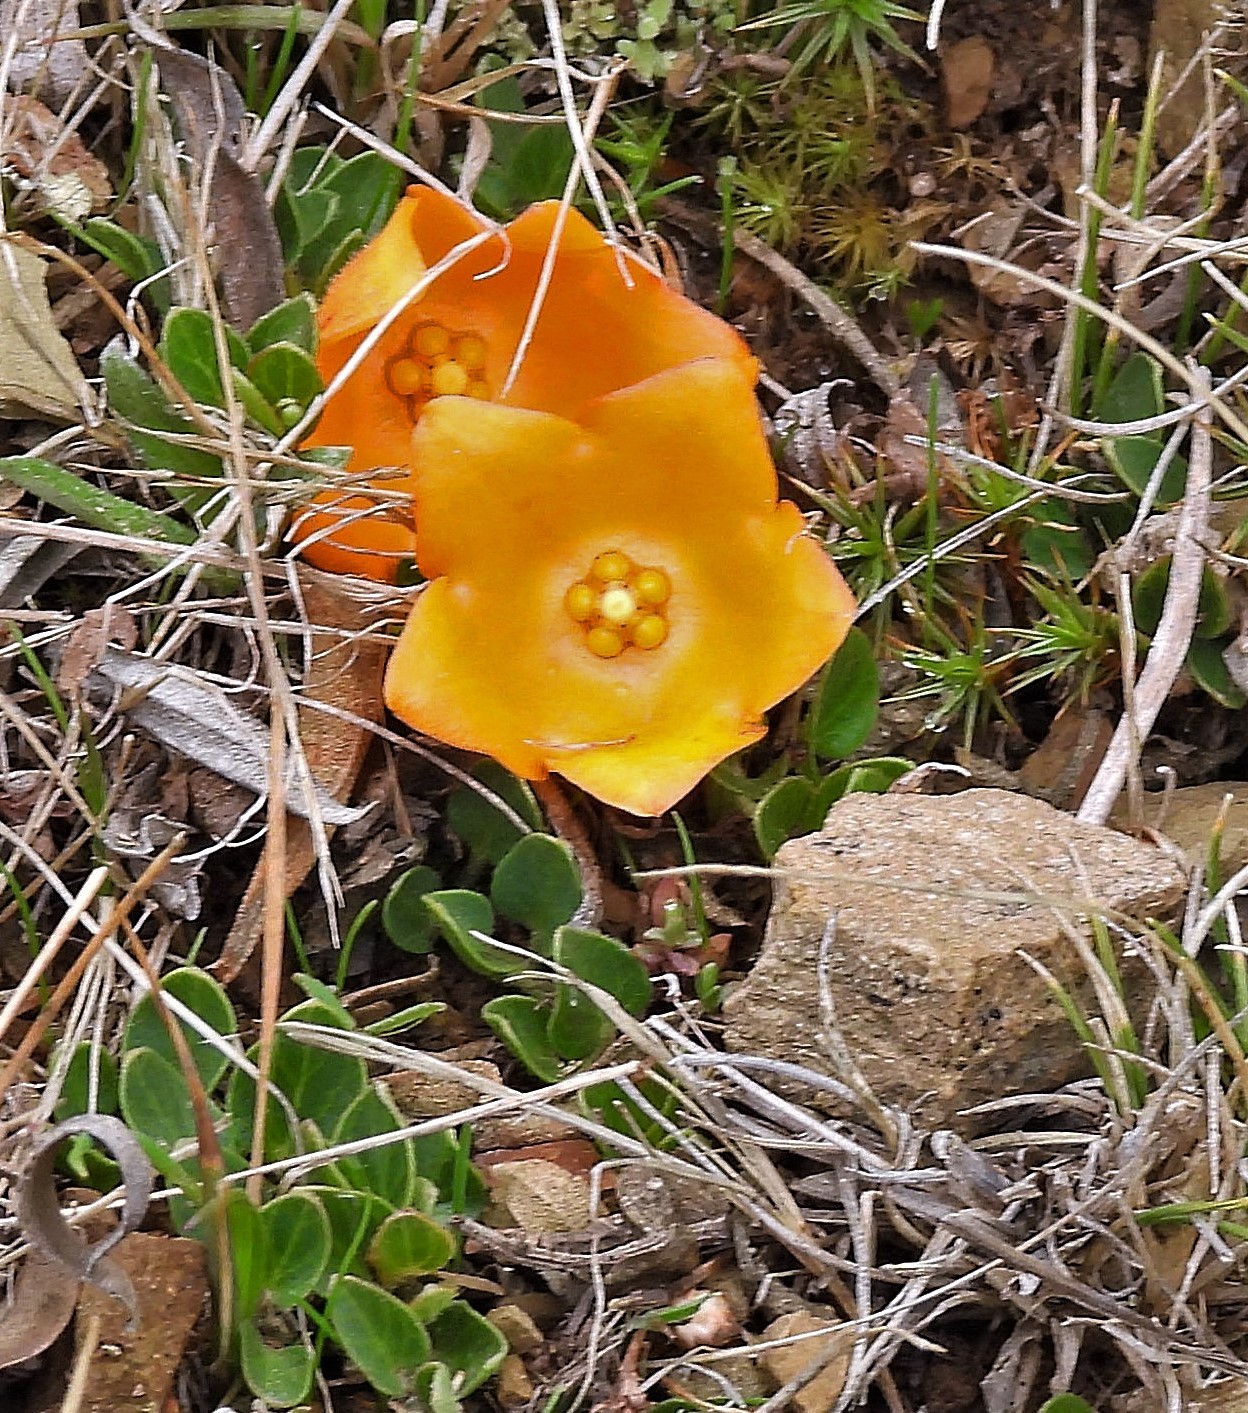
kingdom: Plantae
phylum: Tracheophyta
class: Magnoliopsida
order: Gentianales
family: Apocynaceae
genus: Philibertia
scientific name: Philibertia lysimachioides
